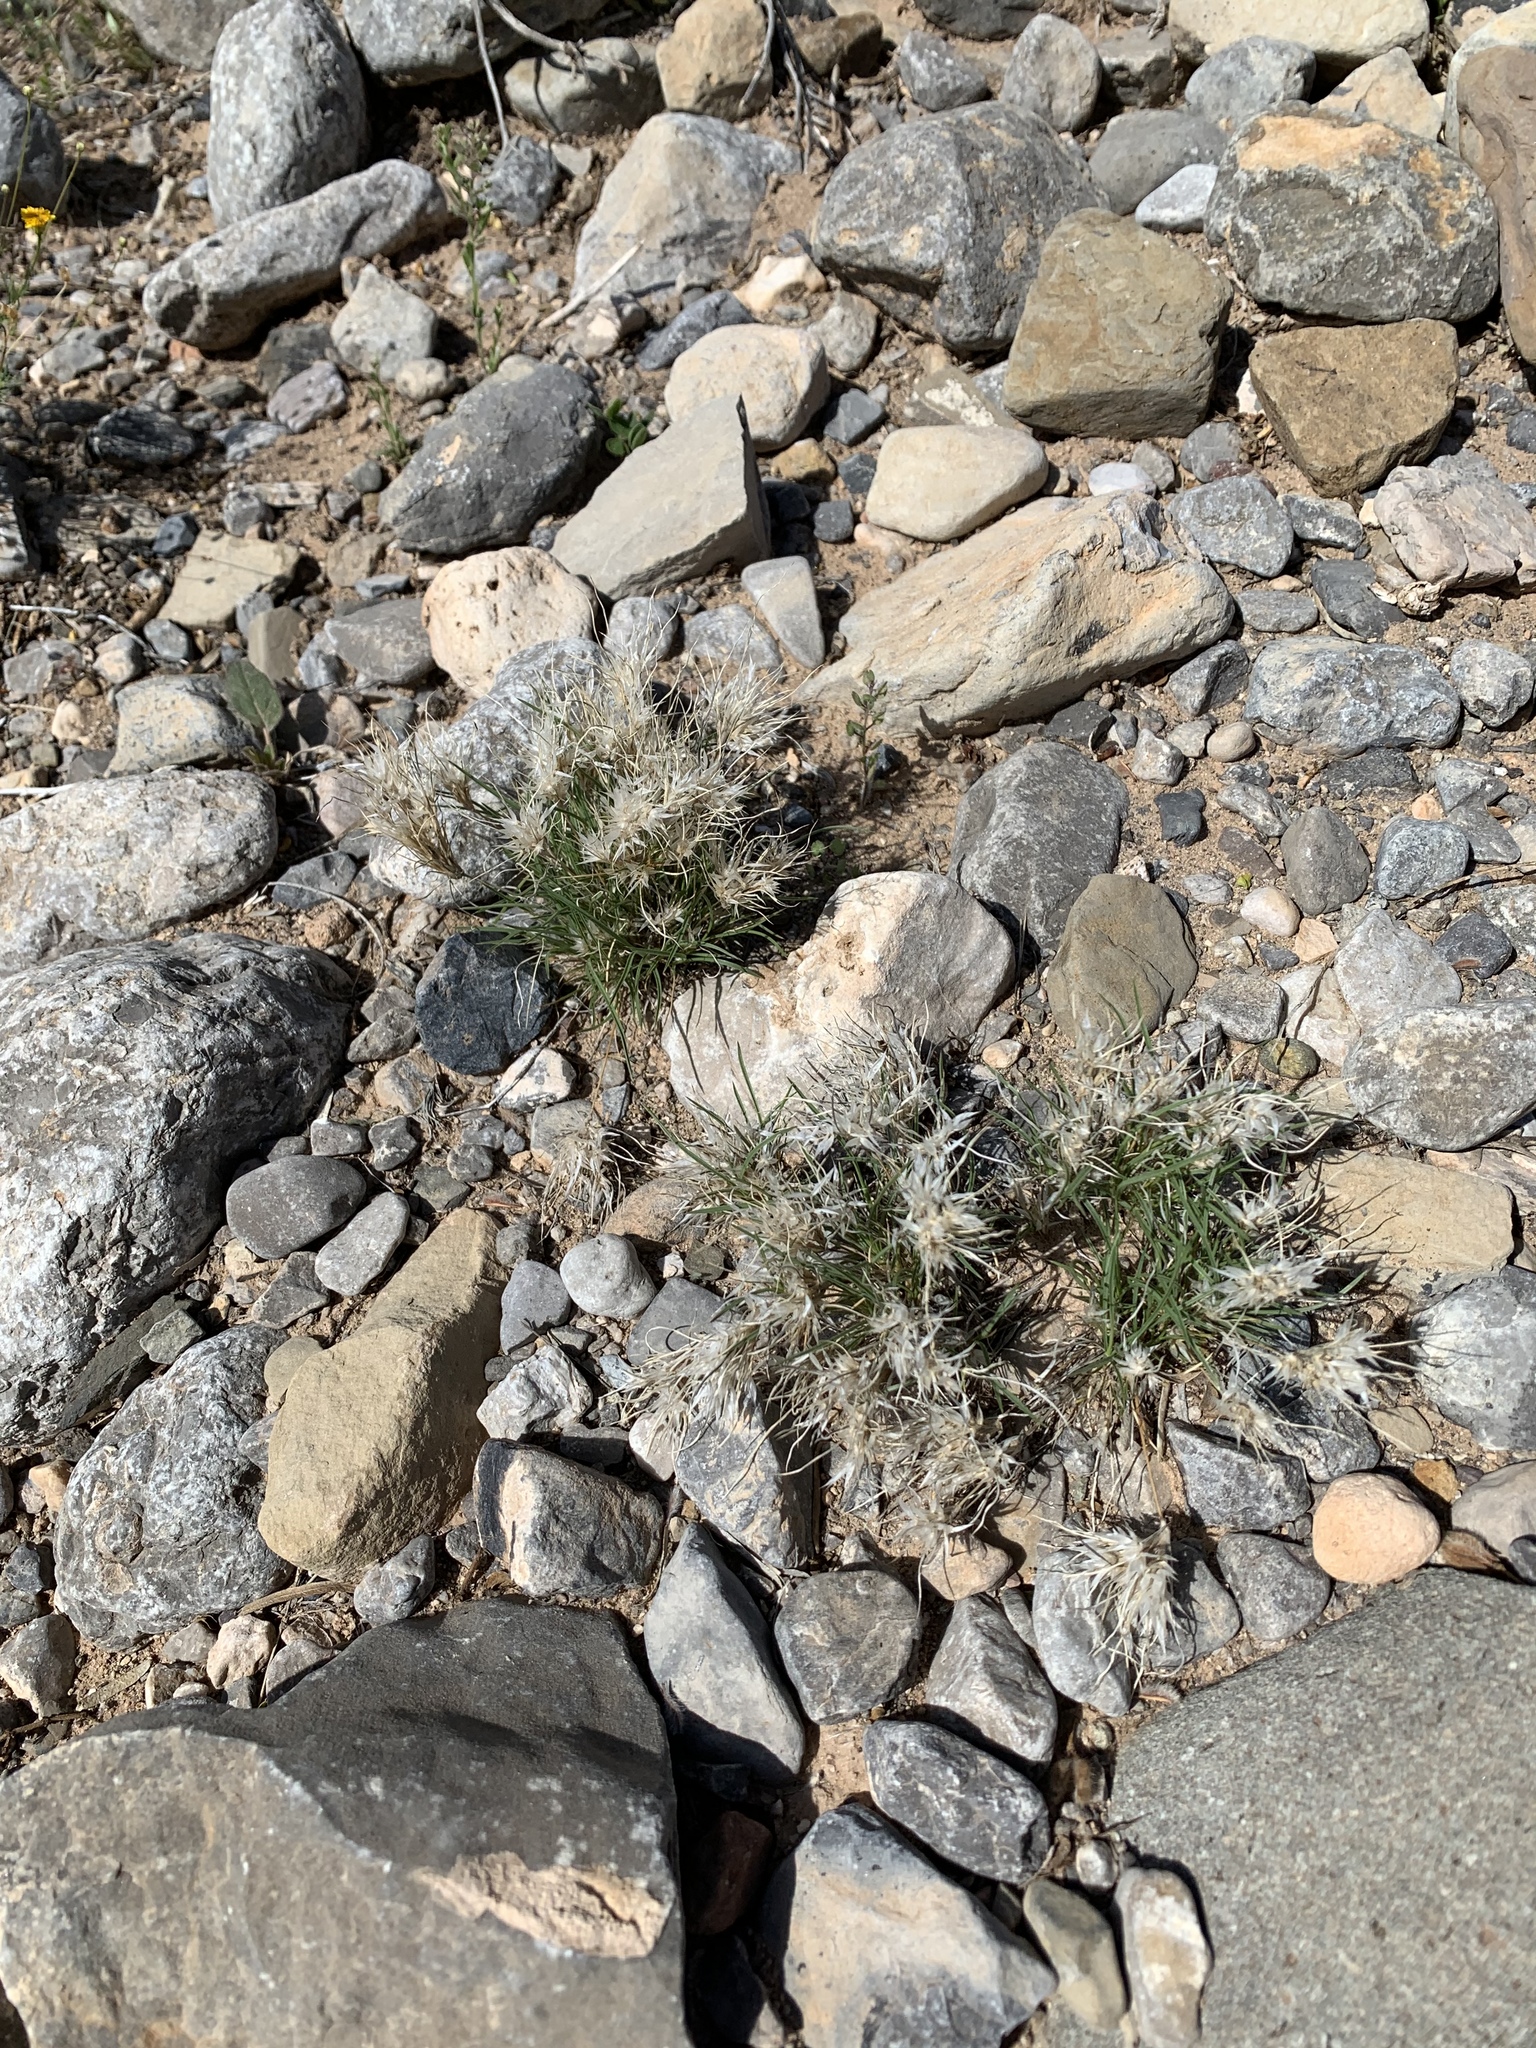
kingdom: Plantae
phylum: Tracheophyta
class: Liliopsida
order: Poales
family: Poaceae
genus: Dasyochloa
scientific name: Dasyochloa pulchella
